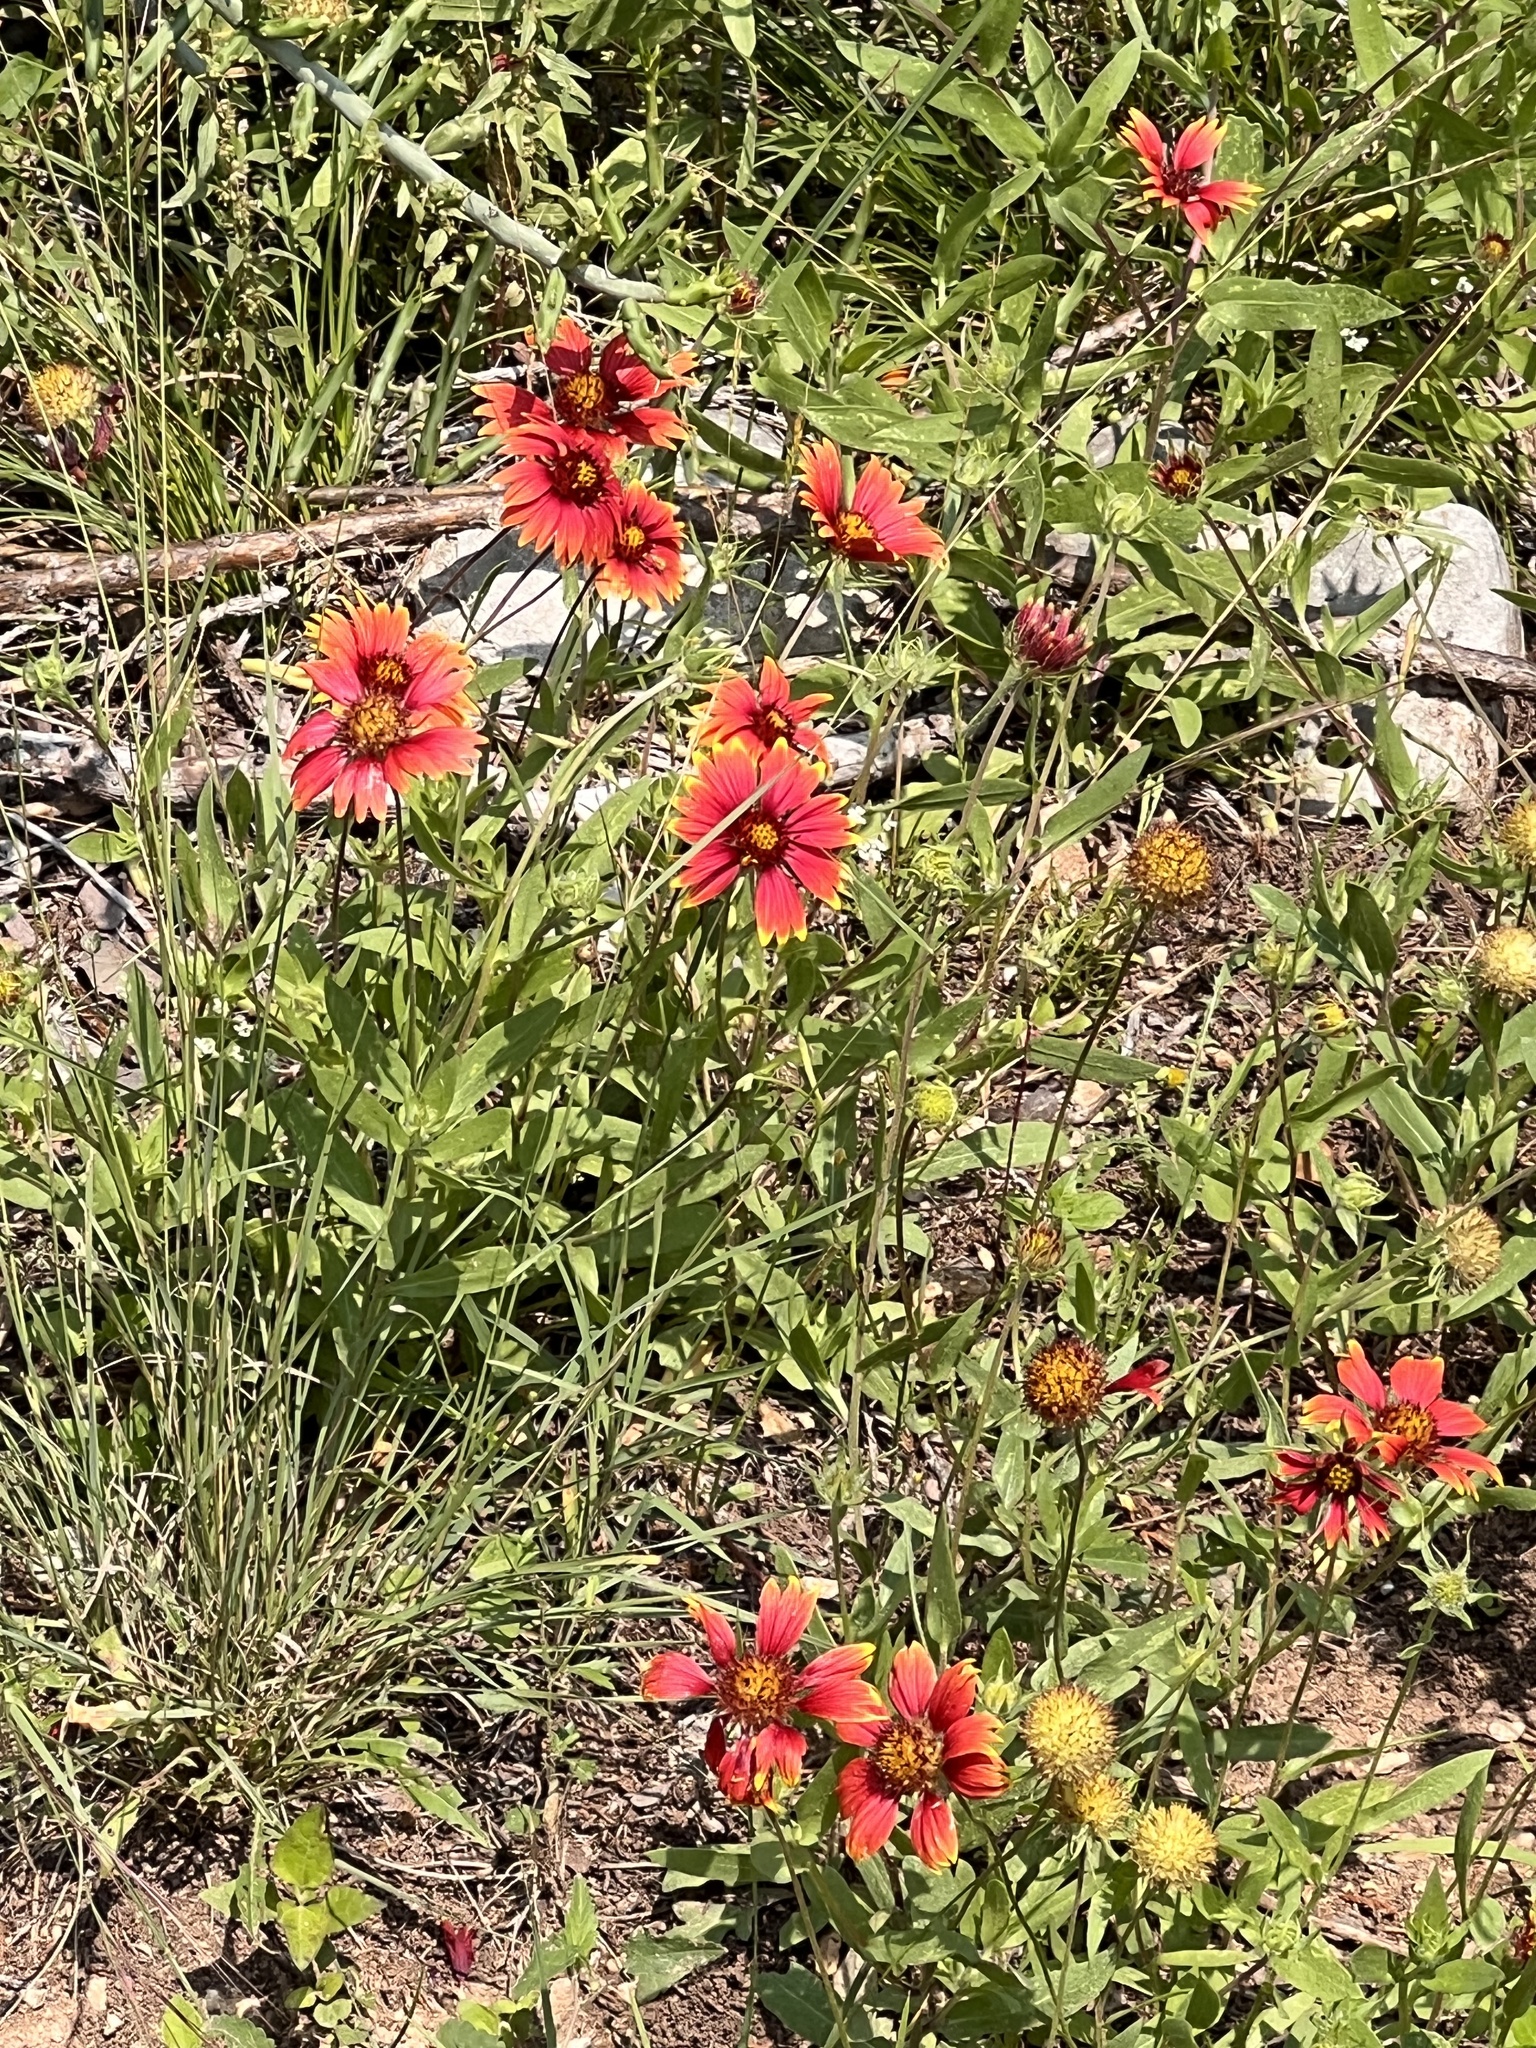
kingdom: Plantae
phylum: Tracheophyta
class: Magnoliopsida
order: Asterales
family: Asteraceae
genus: Gaillardia
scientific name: Gaillardia pulchella
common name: Firewheel
